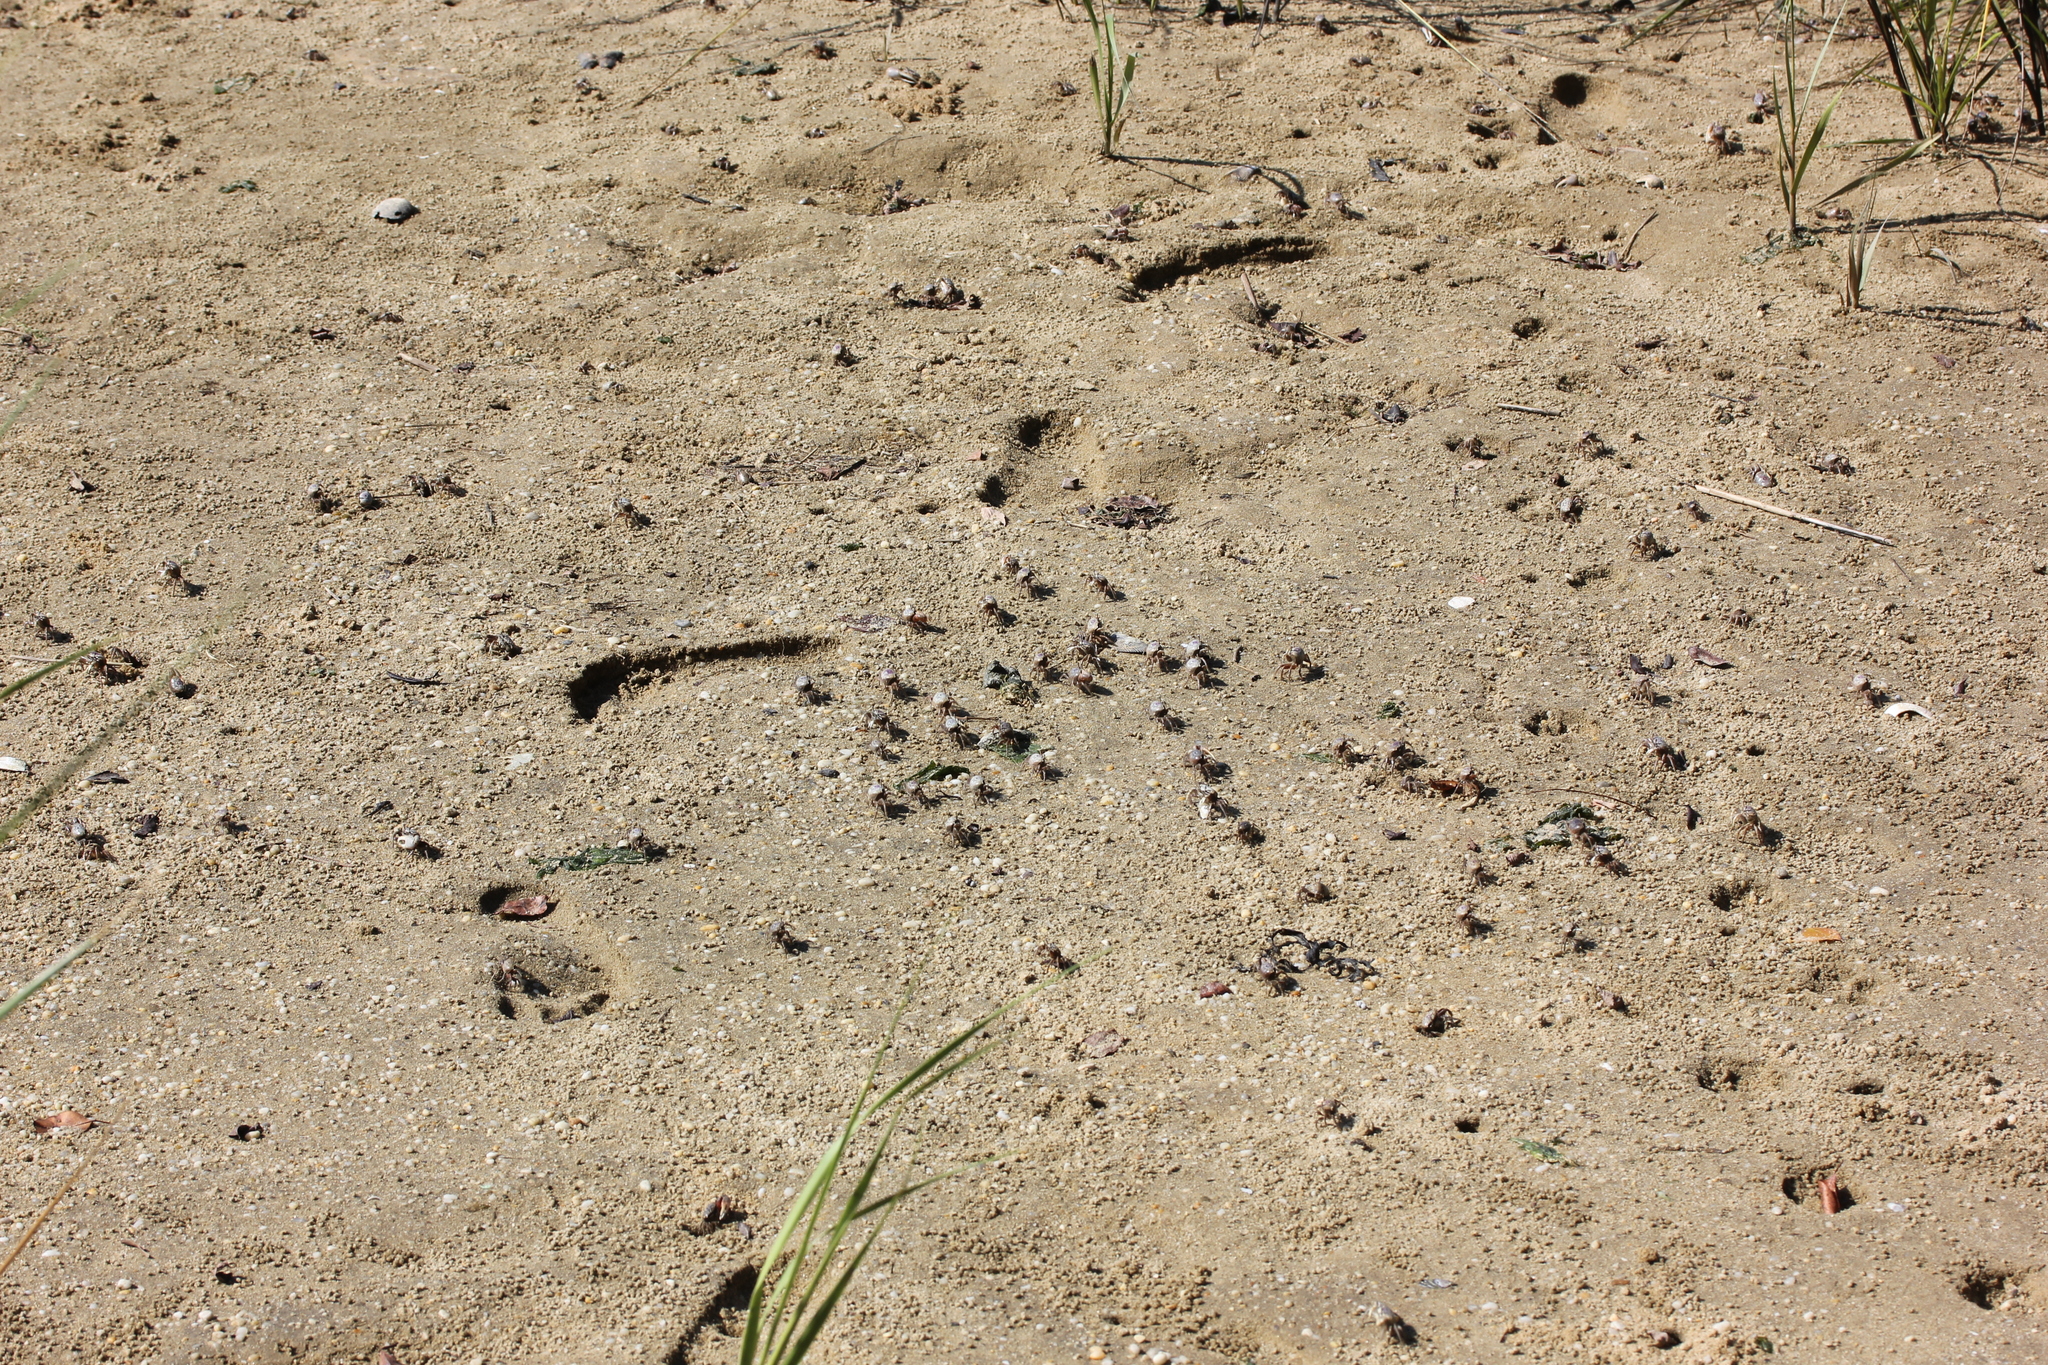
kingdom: Animalia
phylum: Arthropoda
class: Malacostraca
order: Decapoda
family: Ocypodidae
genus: Leptuca
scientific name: Leptuca pugilator
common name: Atlantic sand fiddler crab
